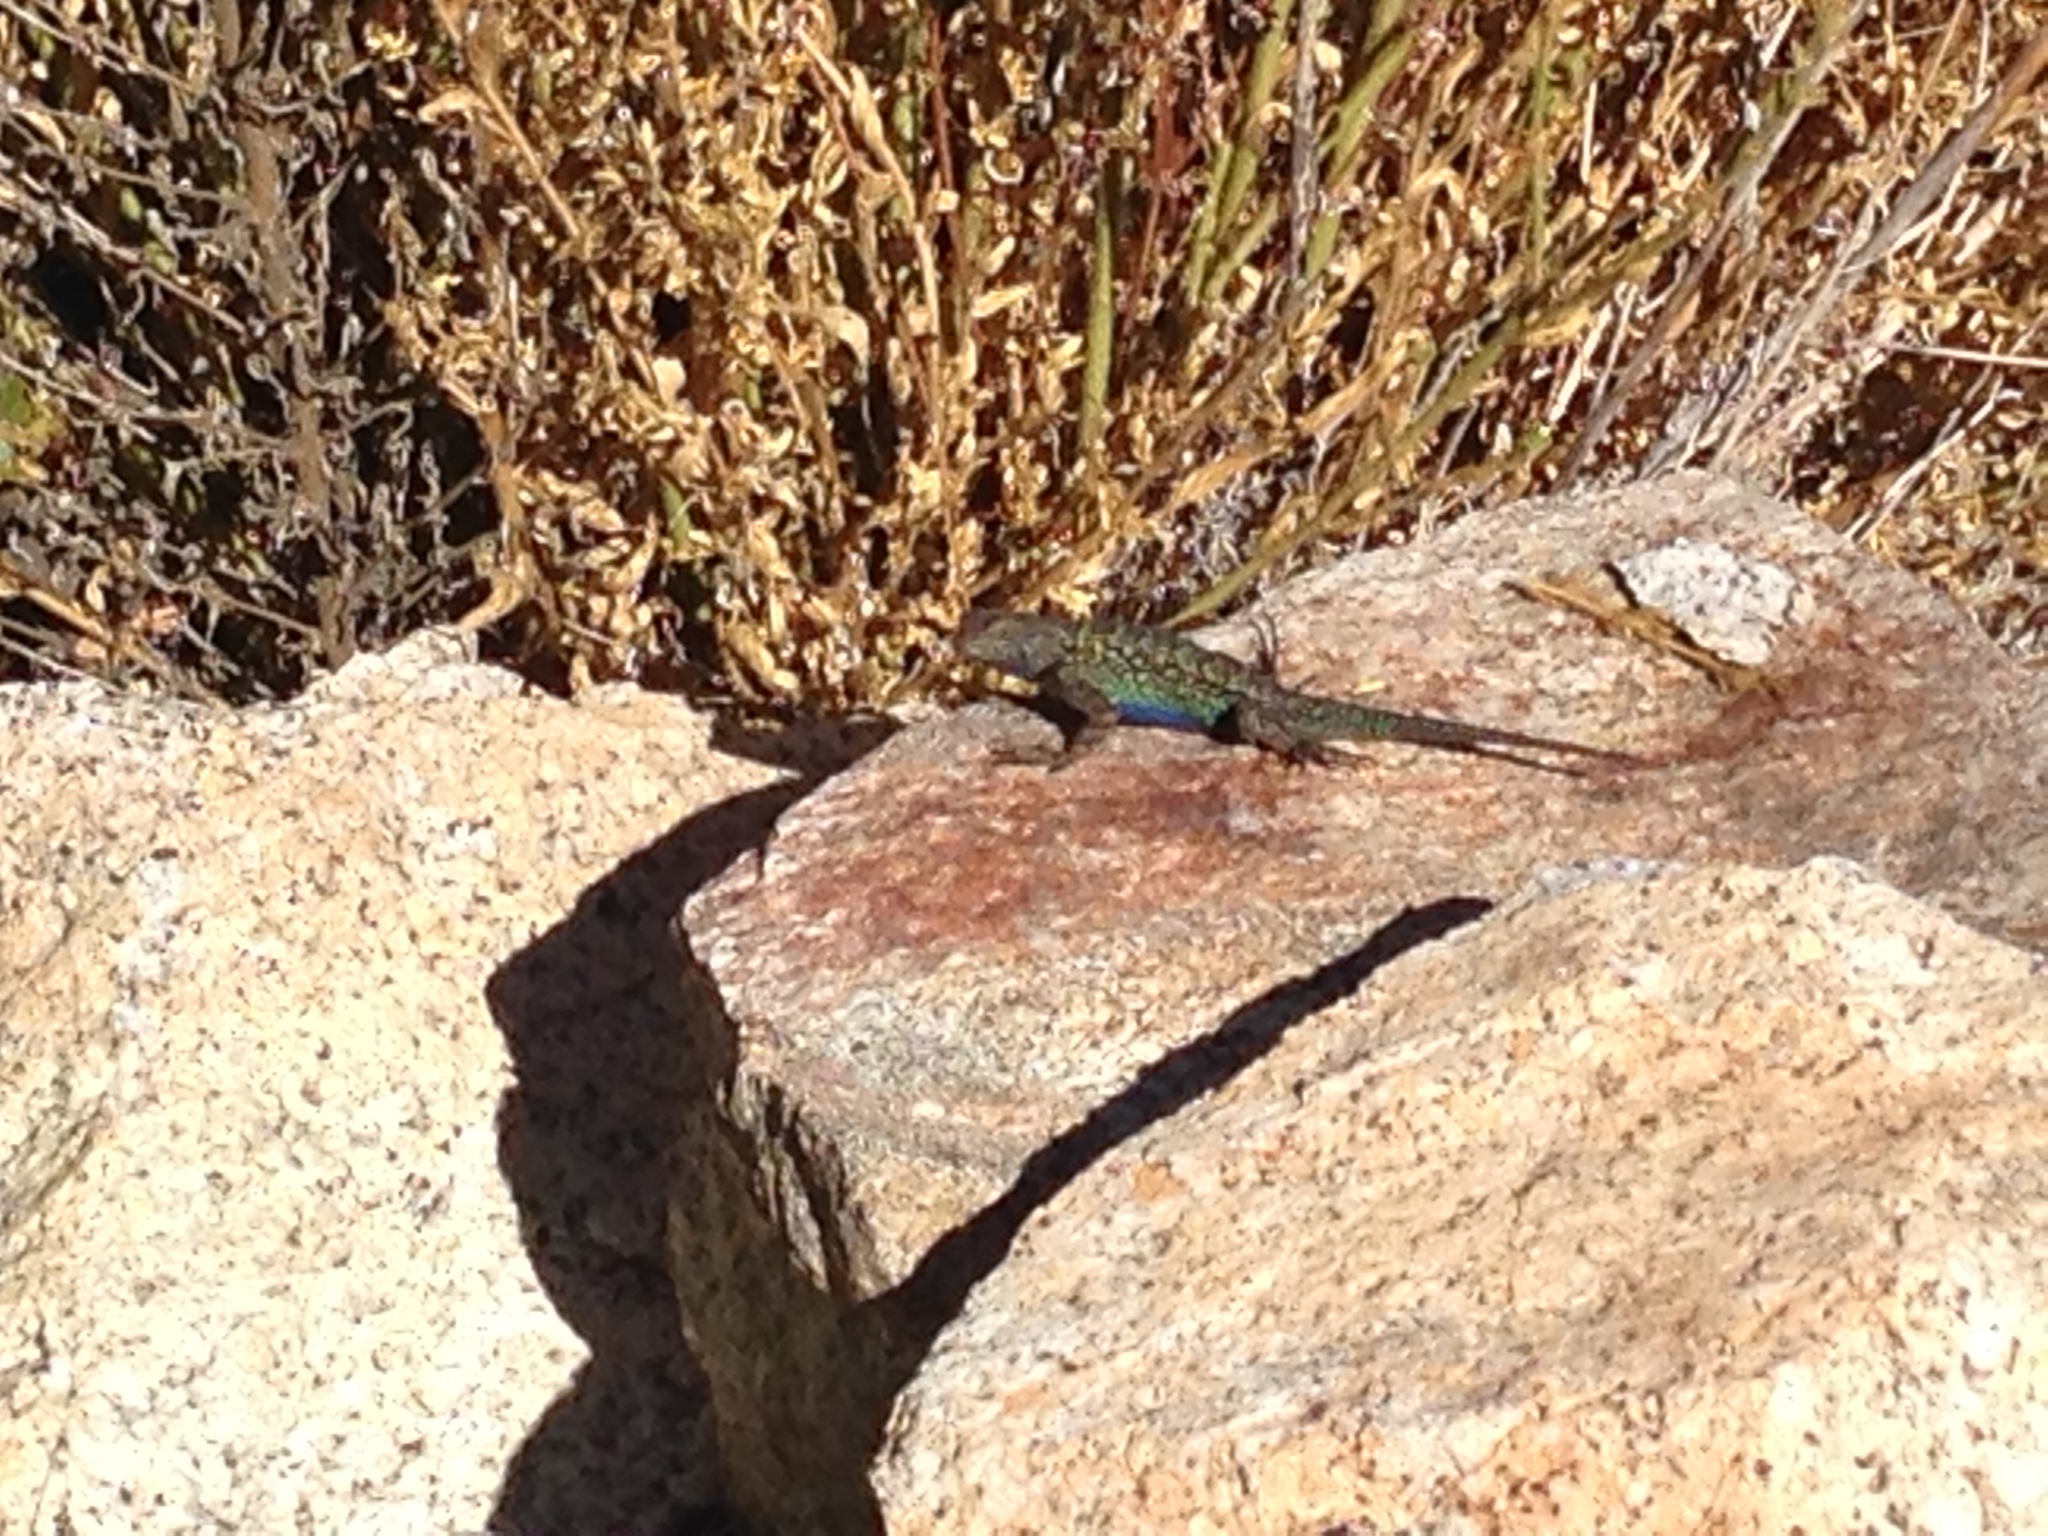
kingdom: Animalia
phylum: Chordata
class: Squamata
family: Phrynosomatidae
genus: Sceloporus
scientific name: Sceloporus occidentalis
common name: Western fence lizard
